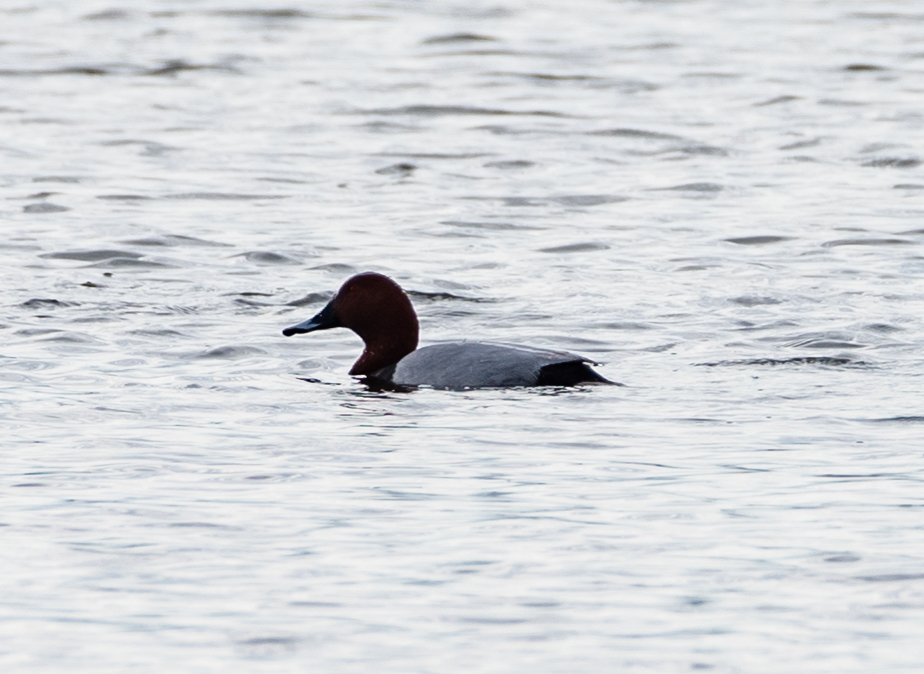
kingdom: Animalia
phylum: Chordata
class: Aves
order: Anseriformes
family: Anatidae
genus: Aythya
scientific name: Aythya ferina
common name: Common pochard
